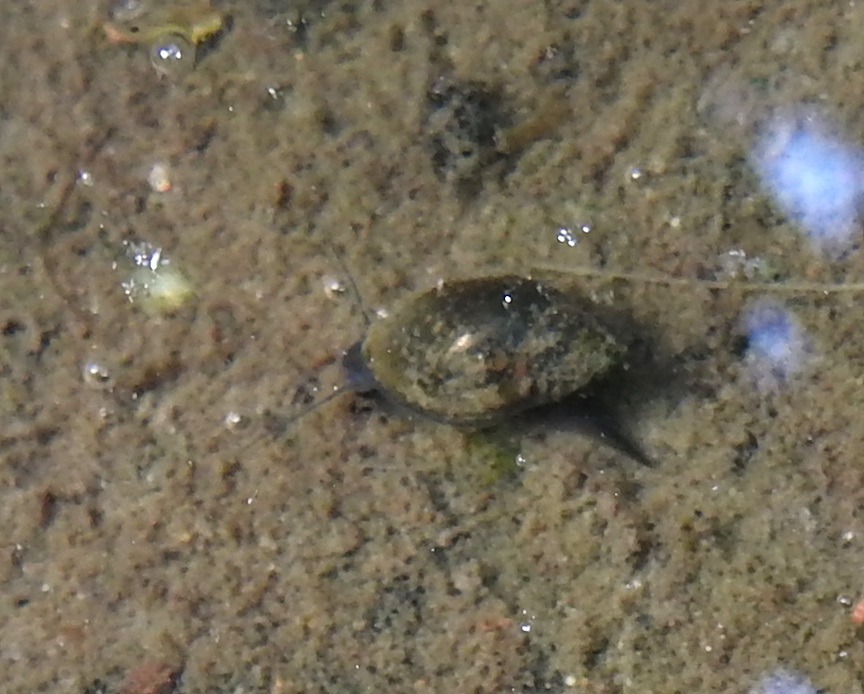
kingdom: Animalia
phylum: Mollusca
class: Gastropoda
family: Physidae
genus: Physella
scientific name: Physella acuta
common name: European physa
